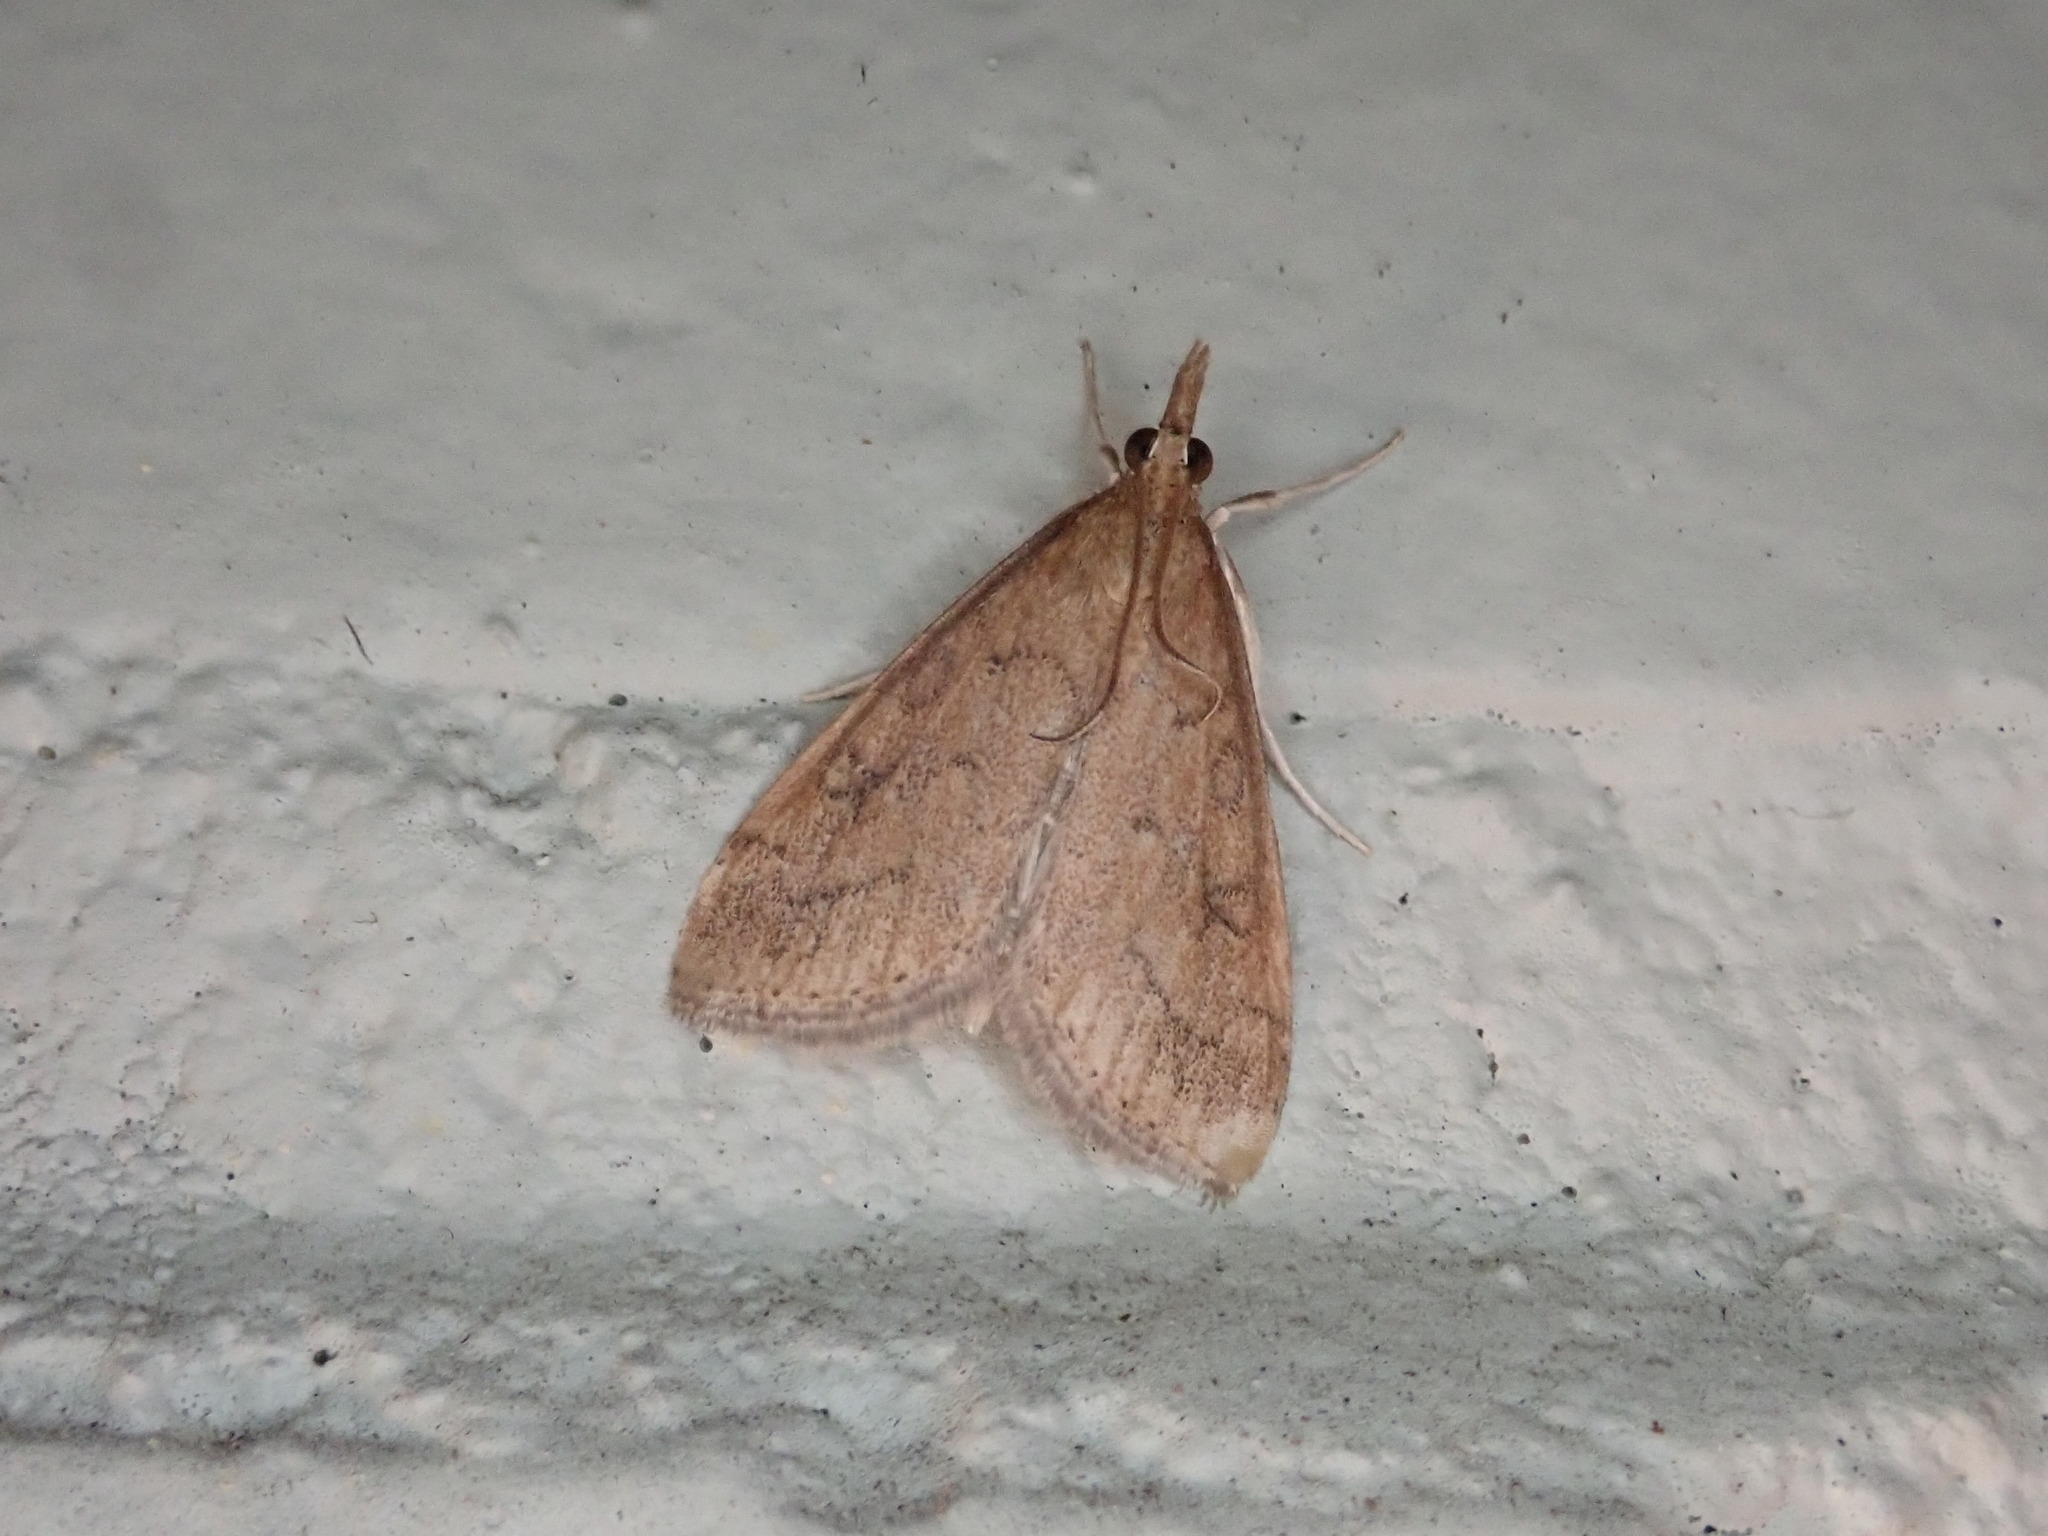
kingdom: Animalia
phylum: Arthropoda
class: Insecta
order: Lepidoptera
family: Crambidae
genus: Udea
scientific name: Udea rubigalis
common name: Celery leaftier moth
